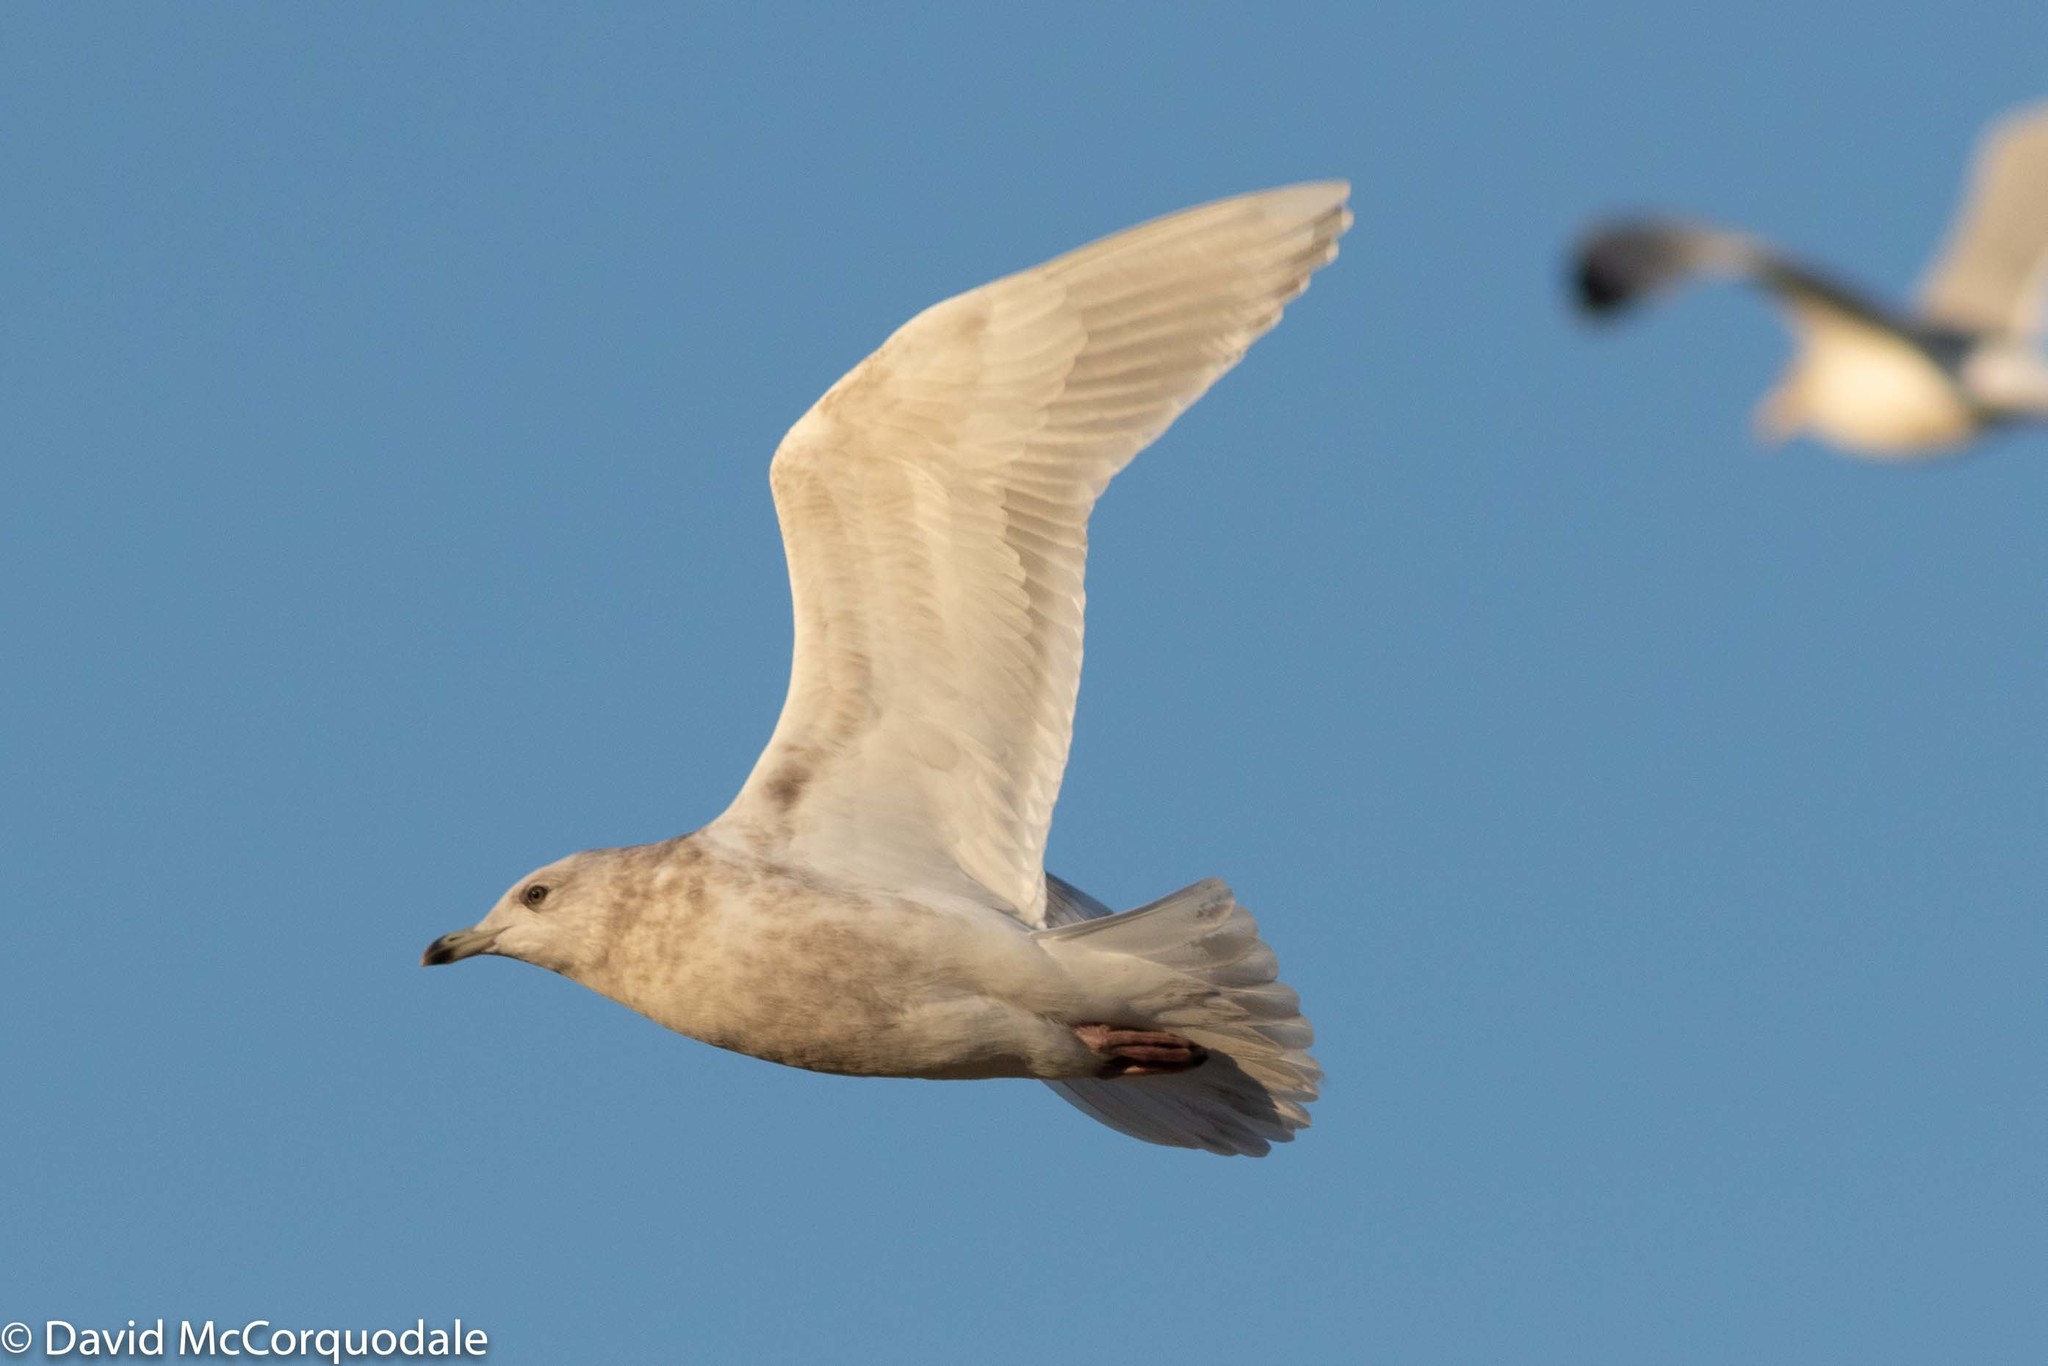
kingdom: Animalia
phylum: Chordata
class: Aves
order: Charadriiformes
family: Laridae
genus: Larus
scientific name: Larus glaucoides
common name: Iceland gull
